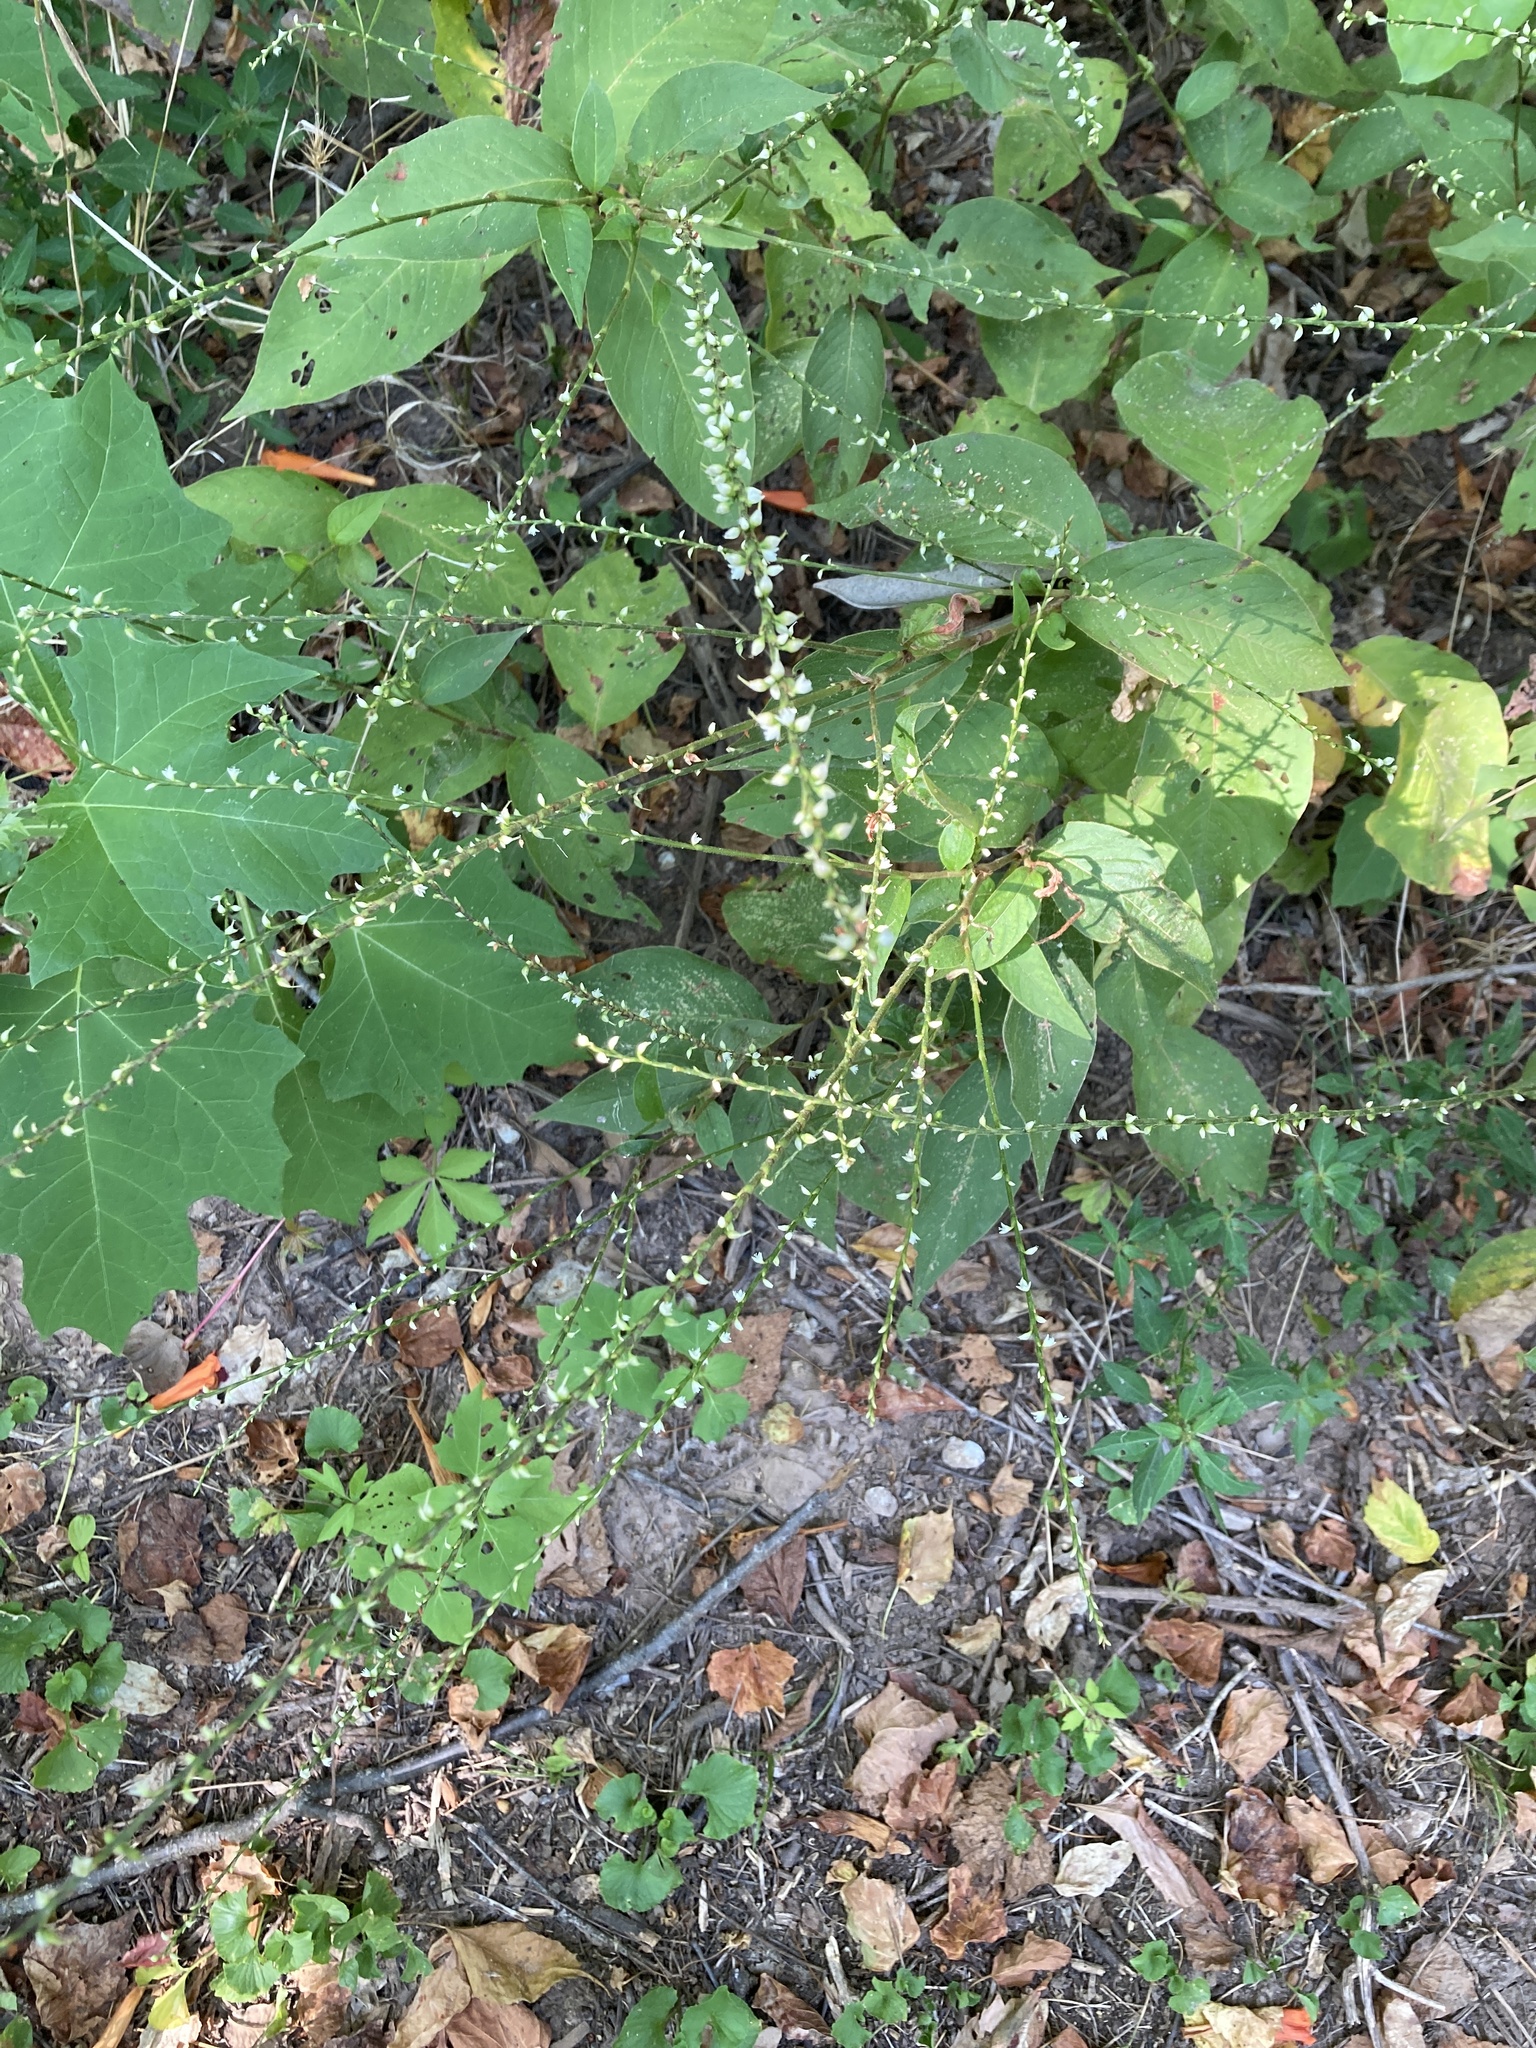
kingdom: Plantae
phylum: Tracheophyta
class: Magnoliopsida
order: Caryophyllales
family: Polygonaceae
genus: Persicaria
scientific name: Persicaria virginiana
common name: Jumpseed
